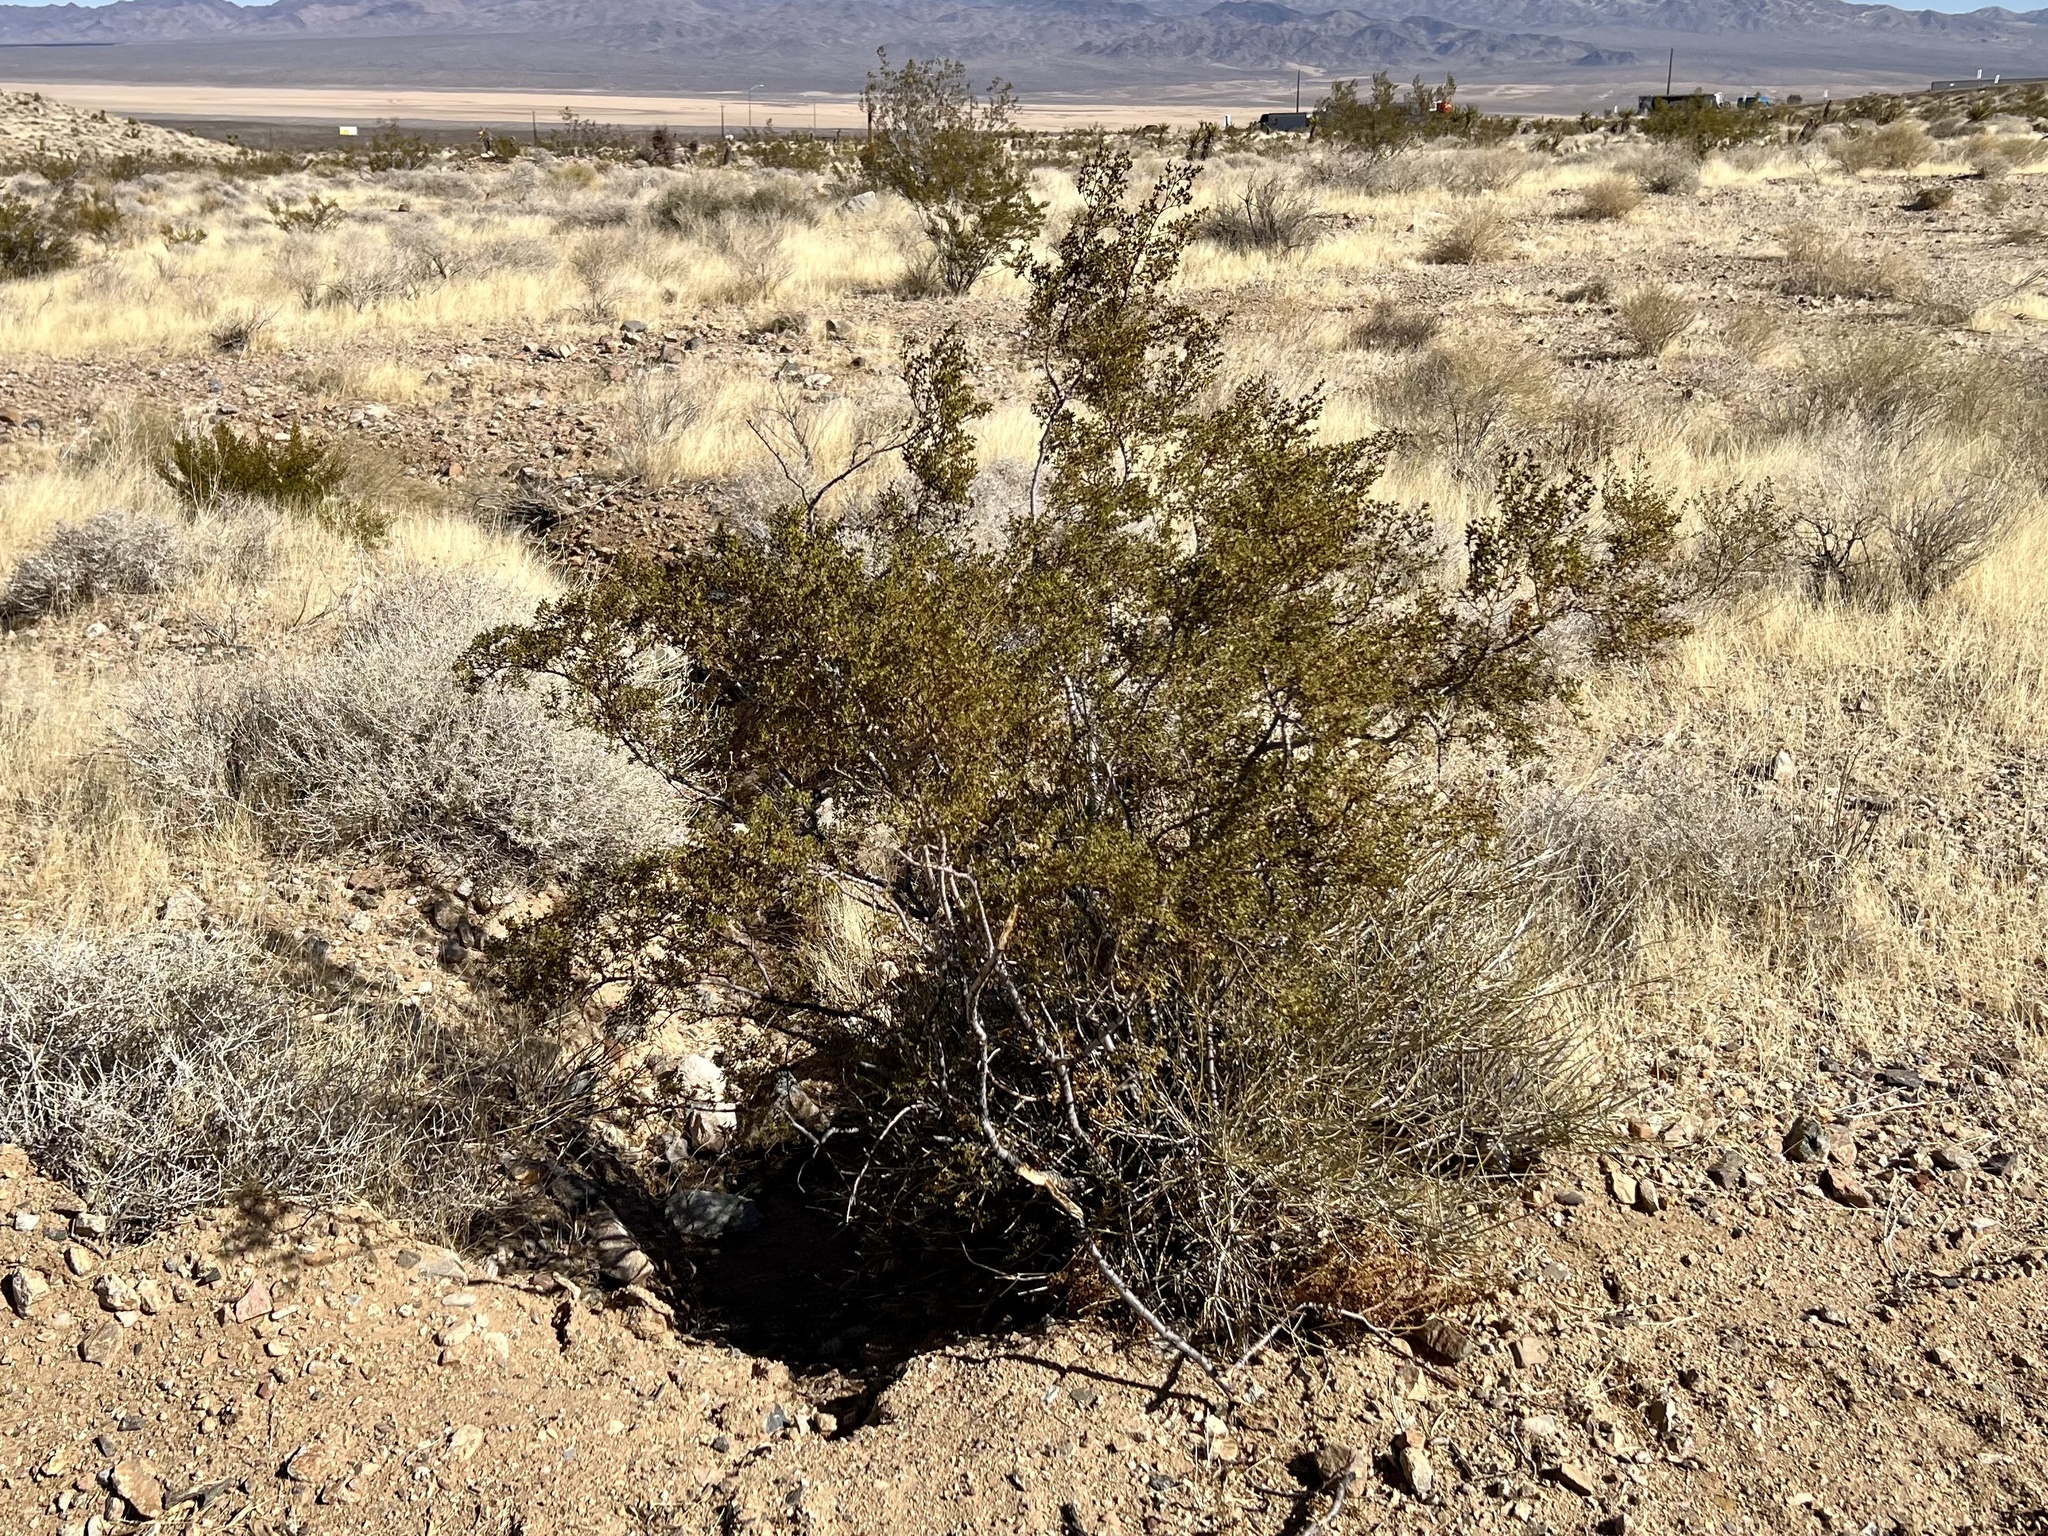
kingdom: Plantae
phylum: Tracheophyta
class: Magnoliopsida
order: Zygophyllales
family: Zygophyllaceae
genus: Larrea
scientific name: Larrea tridentata
